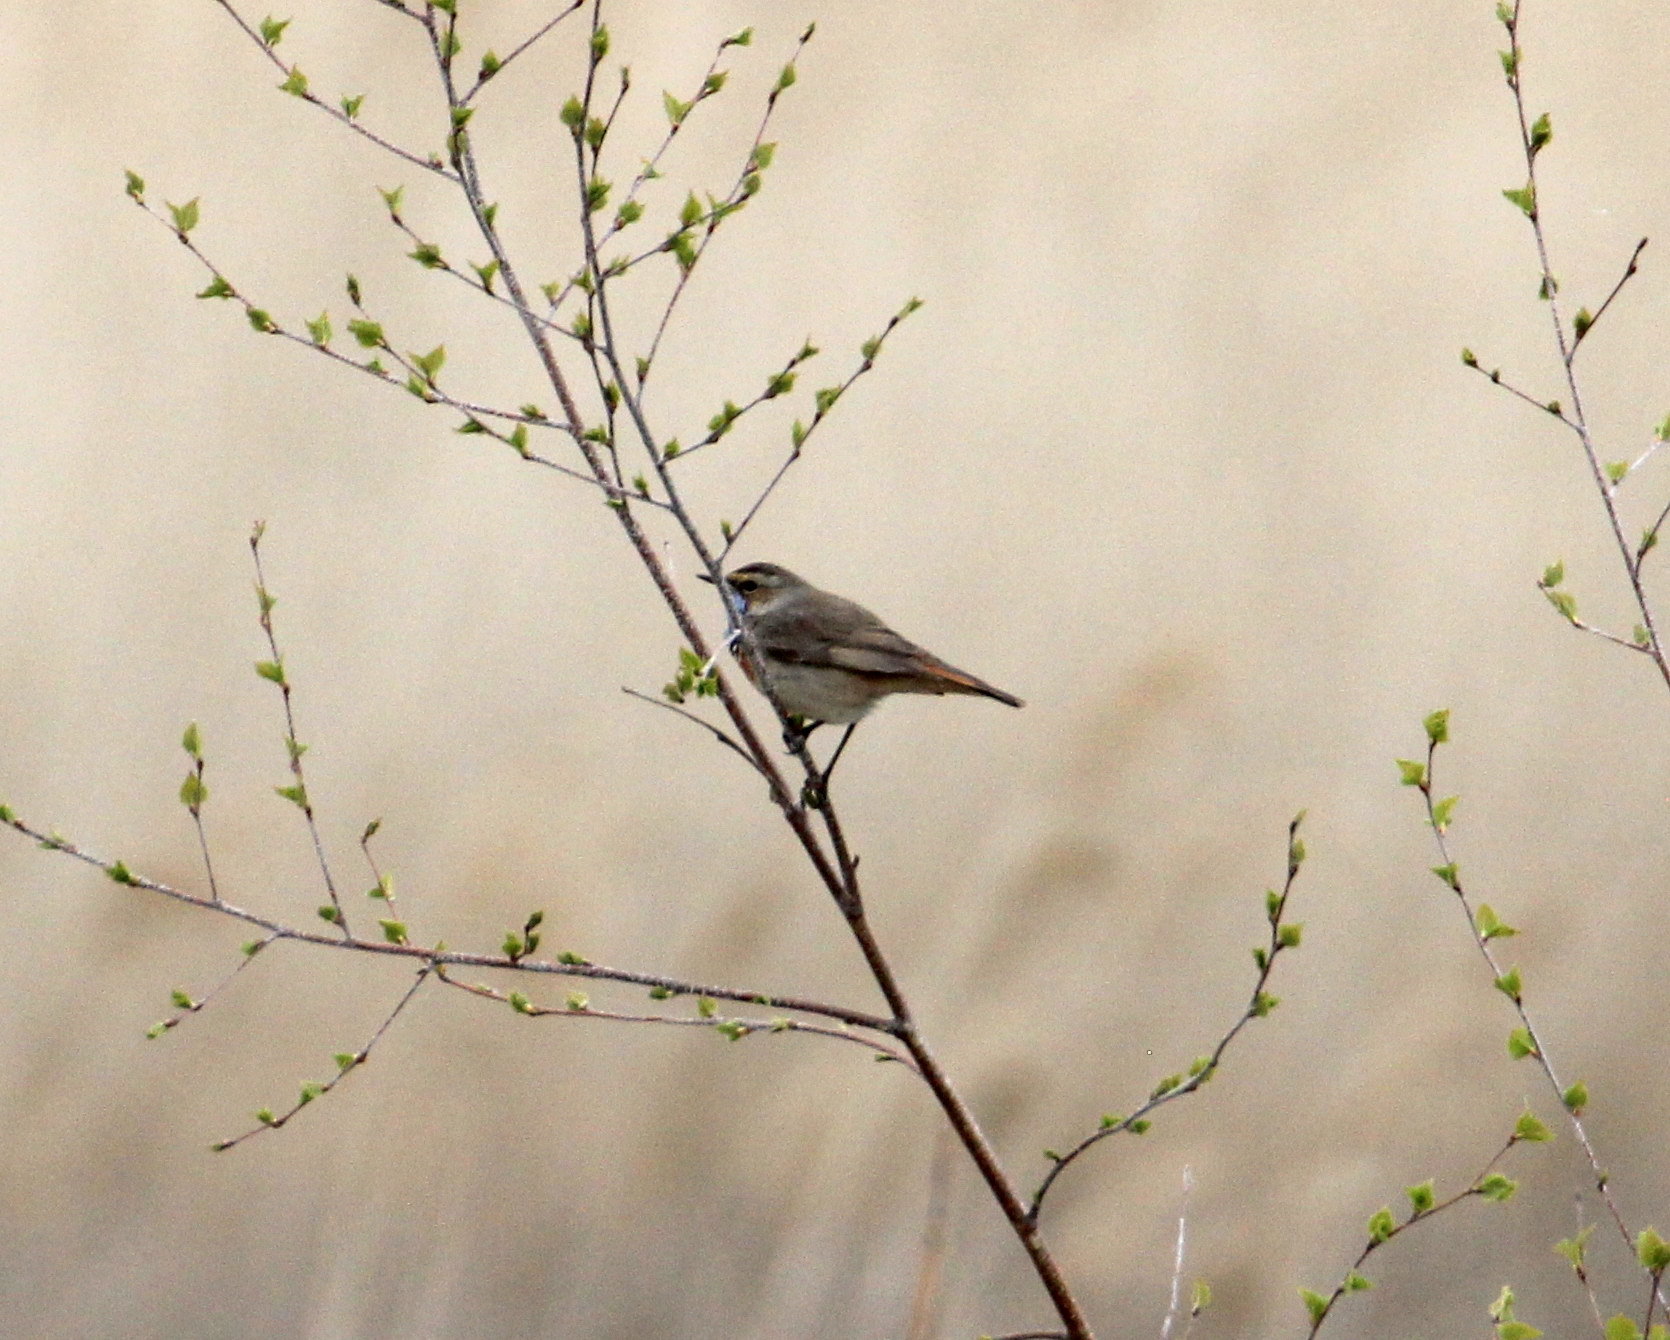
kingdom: Animalia
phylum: Chordata
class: Aves
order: Passeriformes
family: Muscicapidae
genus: Luscinia
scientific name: Luscinia svecica
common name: Bluethroat
